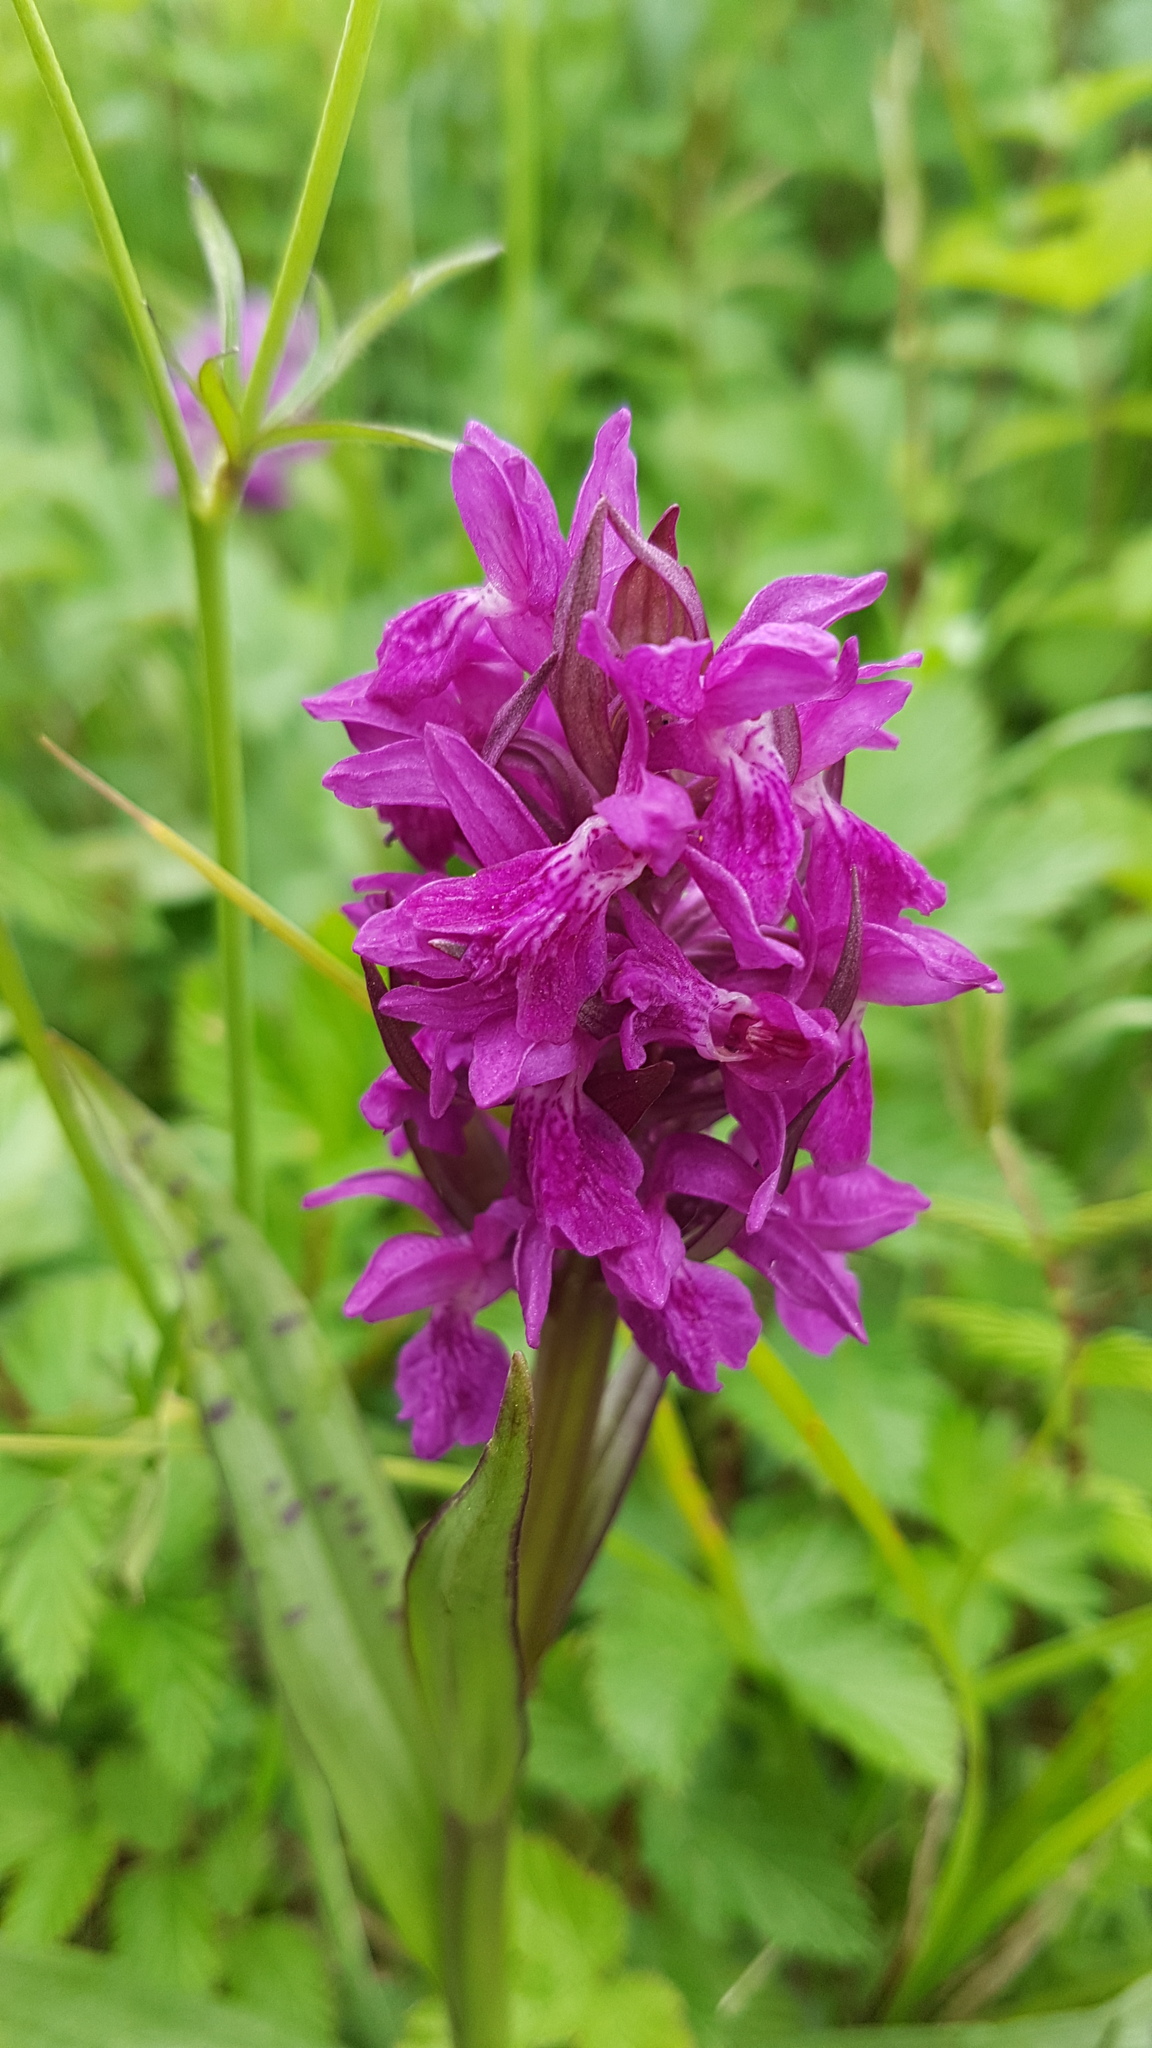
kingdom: Plantae
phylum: Tracheophyta
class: Liliopsida
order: Asparagales
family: Orchidaceae
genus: Dactylorhiza
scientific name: Dactylorhiza majalis
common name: Marsh orchid
